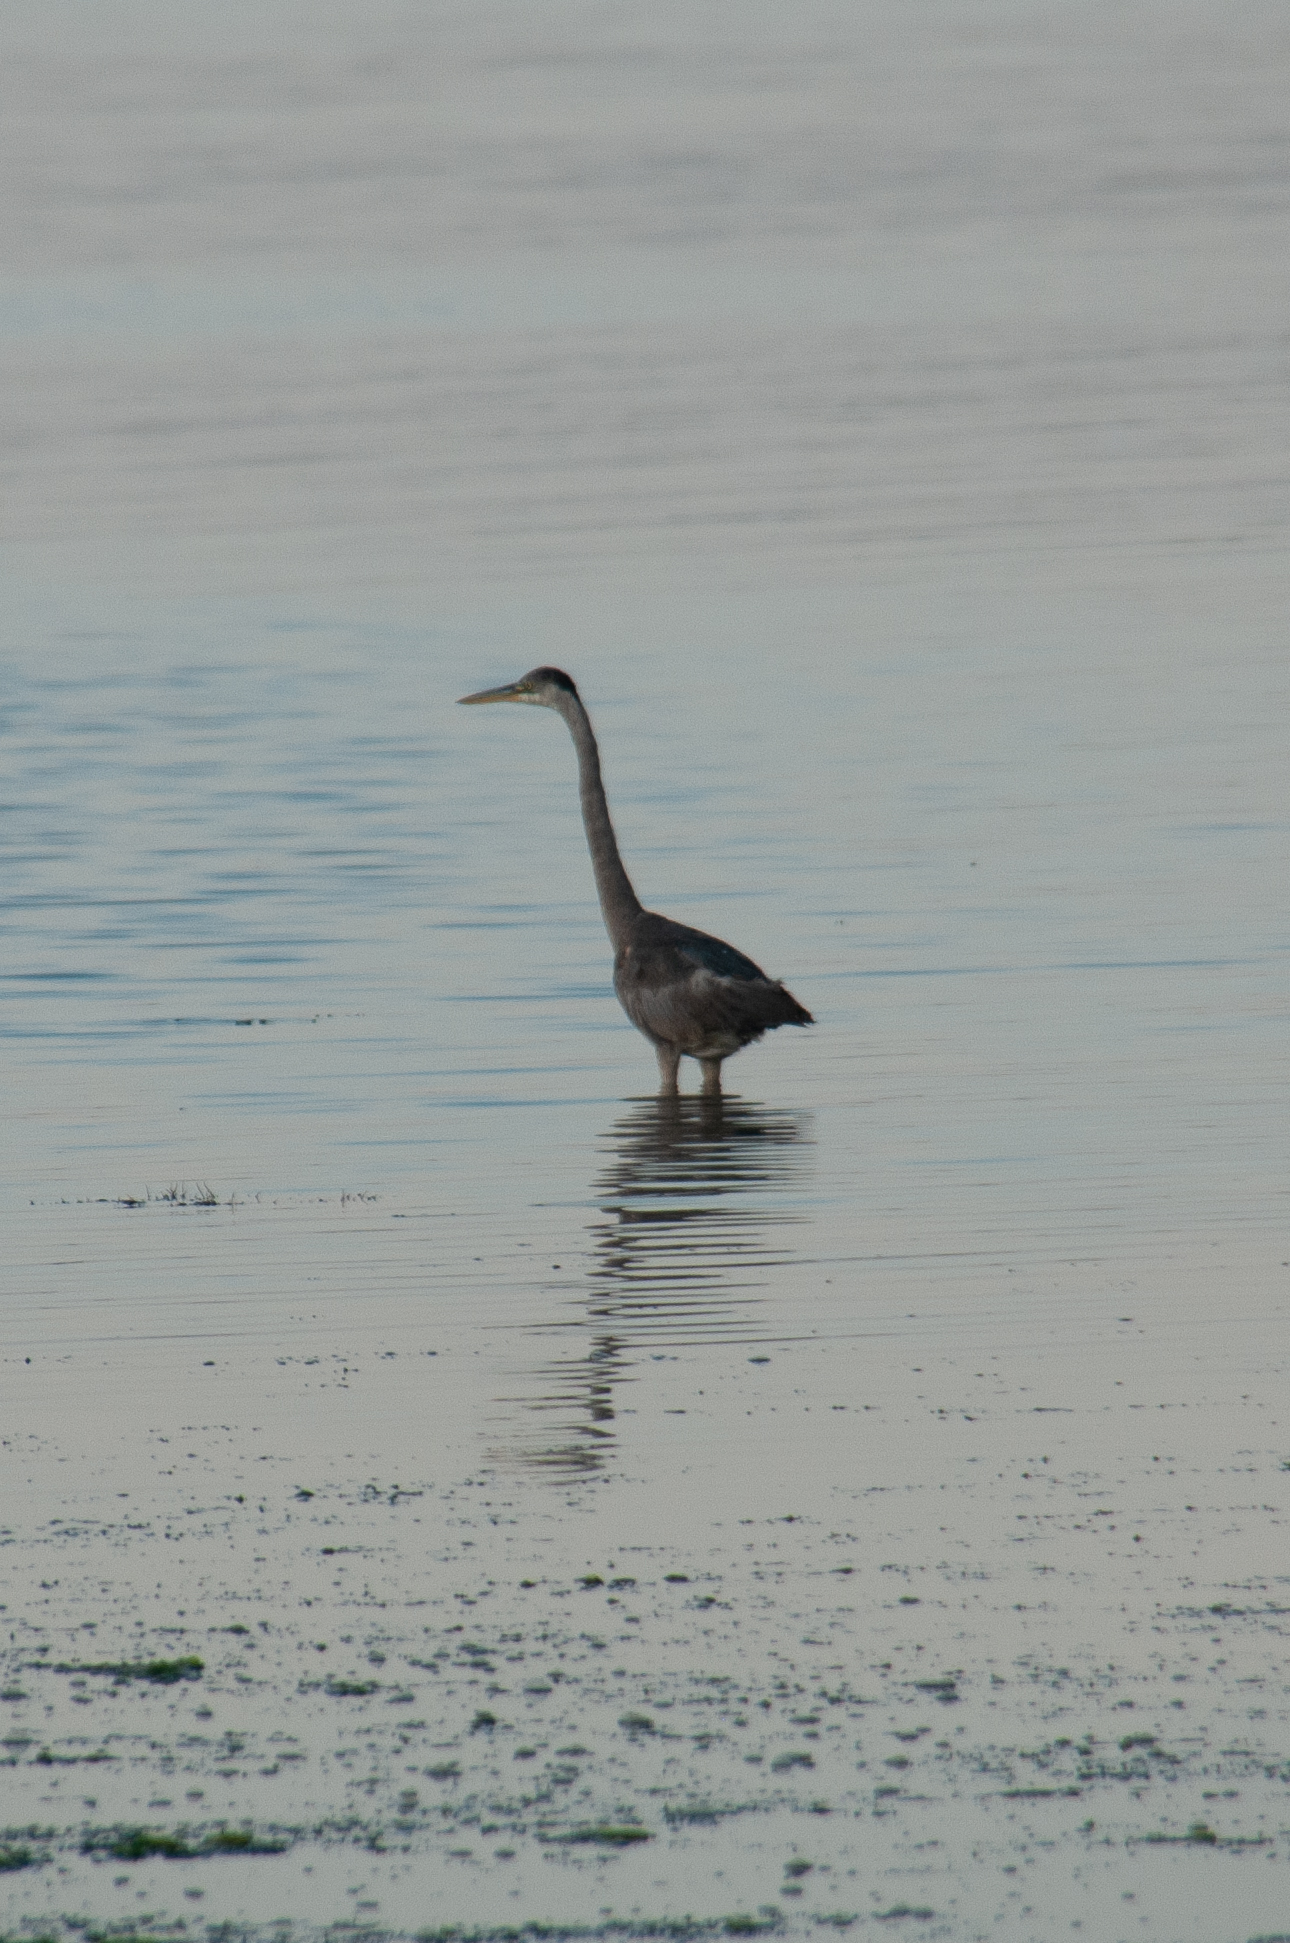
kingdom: Animalia
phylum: Chordata
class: Aves
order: Pelecaniformes
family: Ardeidae
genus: Ardea
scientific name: Ardea herodias
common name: Great blue heron
